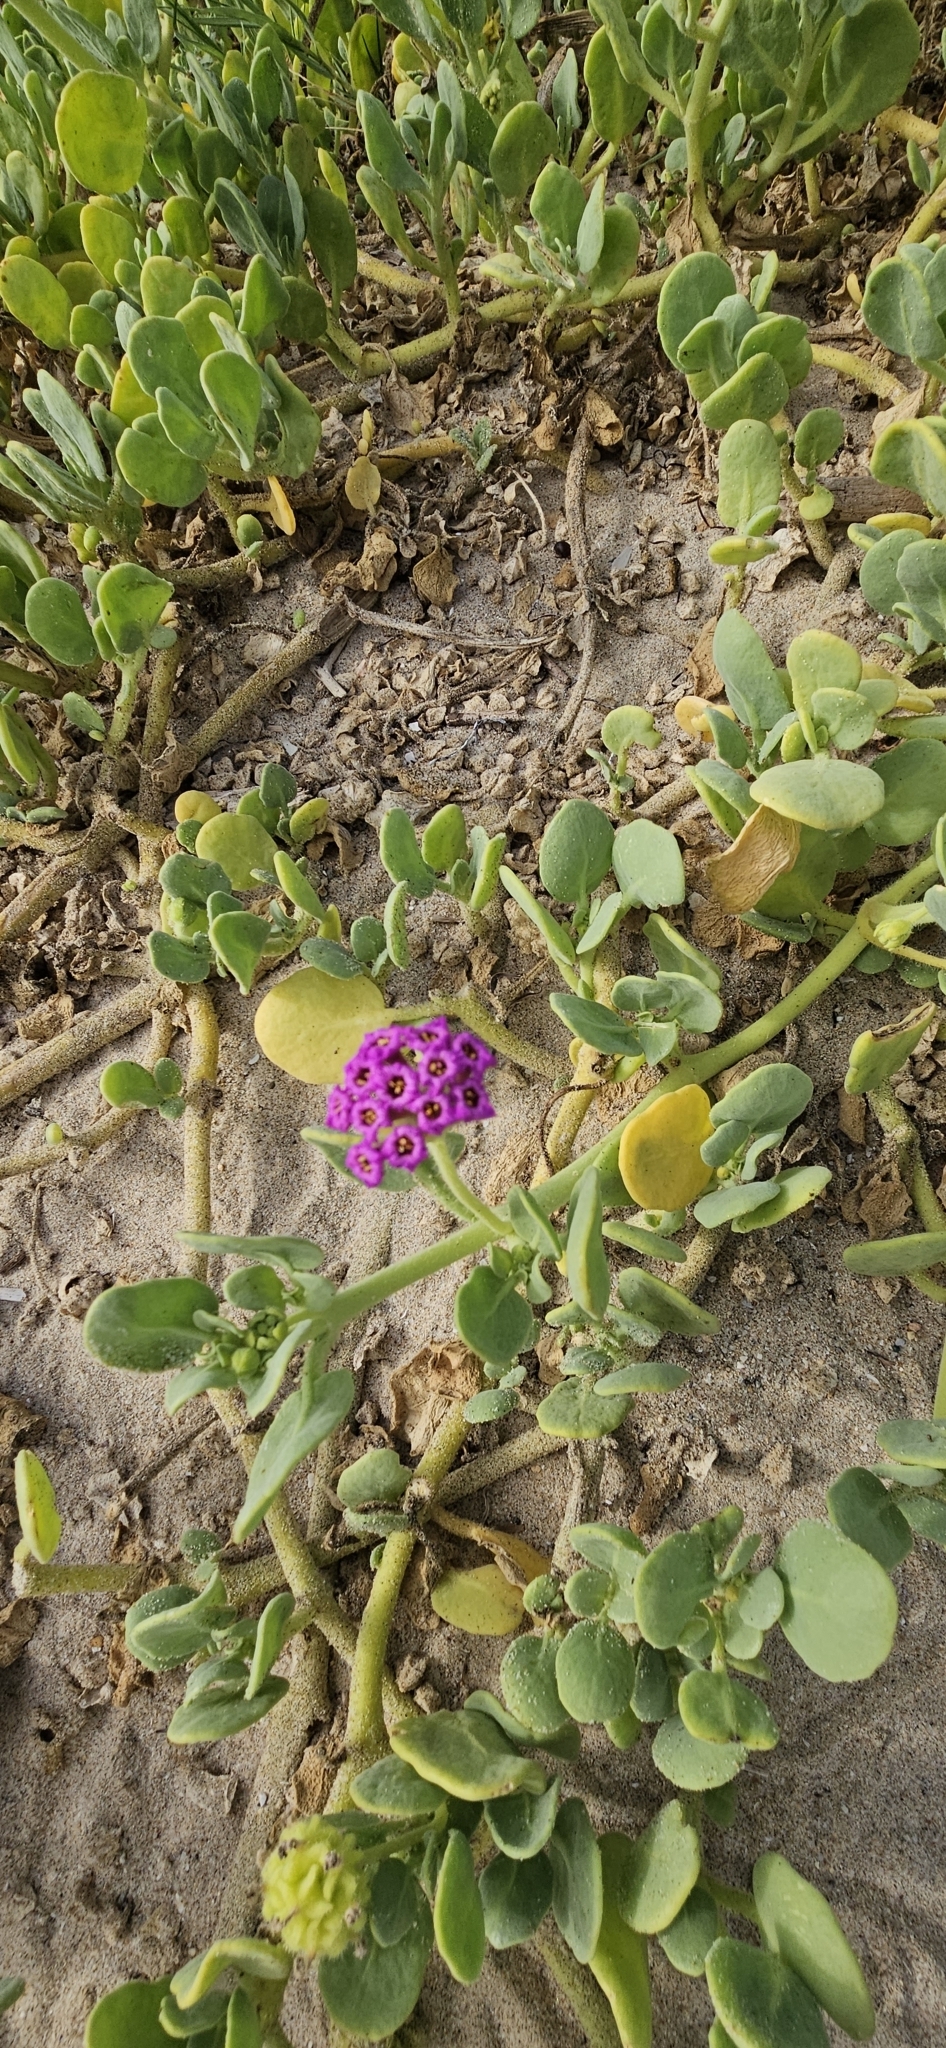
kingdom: Plantae
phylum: Tracheophyta
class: Magnoliopsida
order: Caryophyllales
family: Nyctaginaceae
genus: Abronia
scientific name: Abronia maritima
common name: Red sand-verbena
